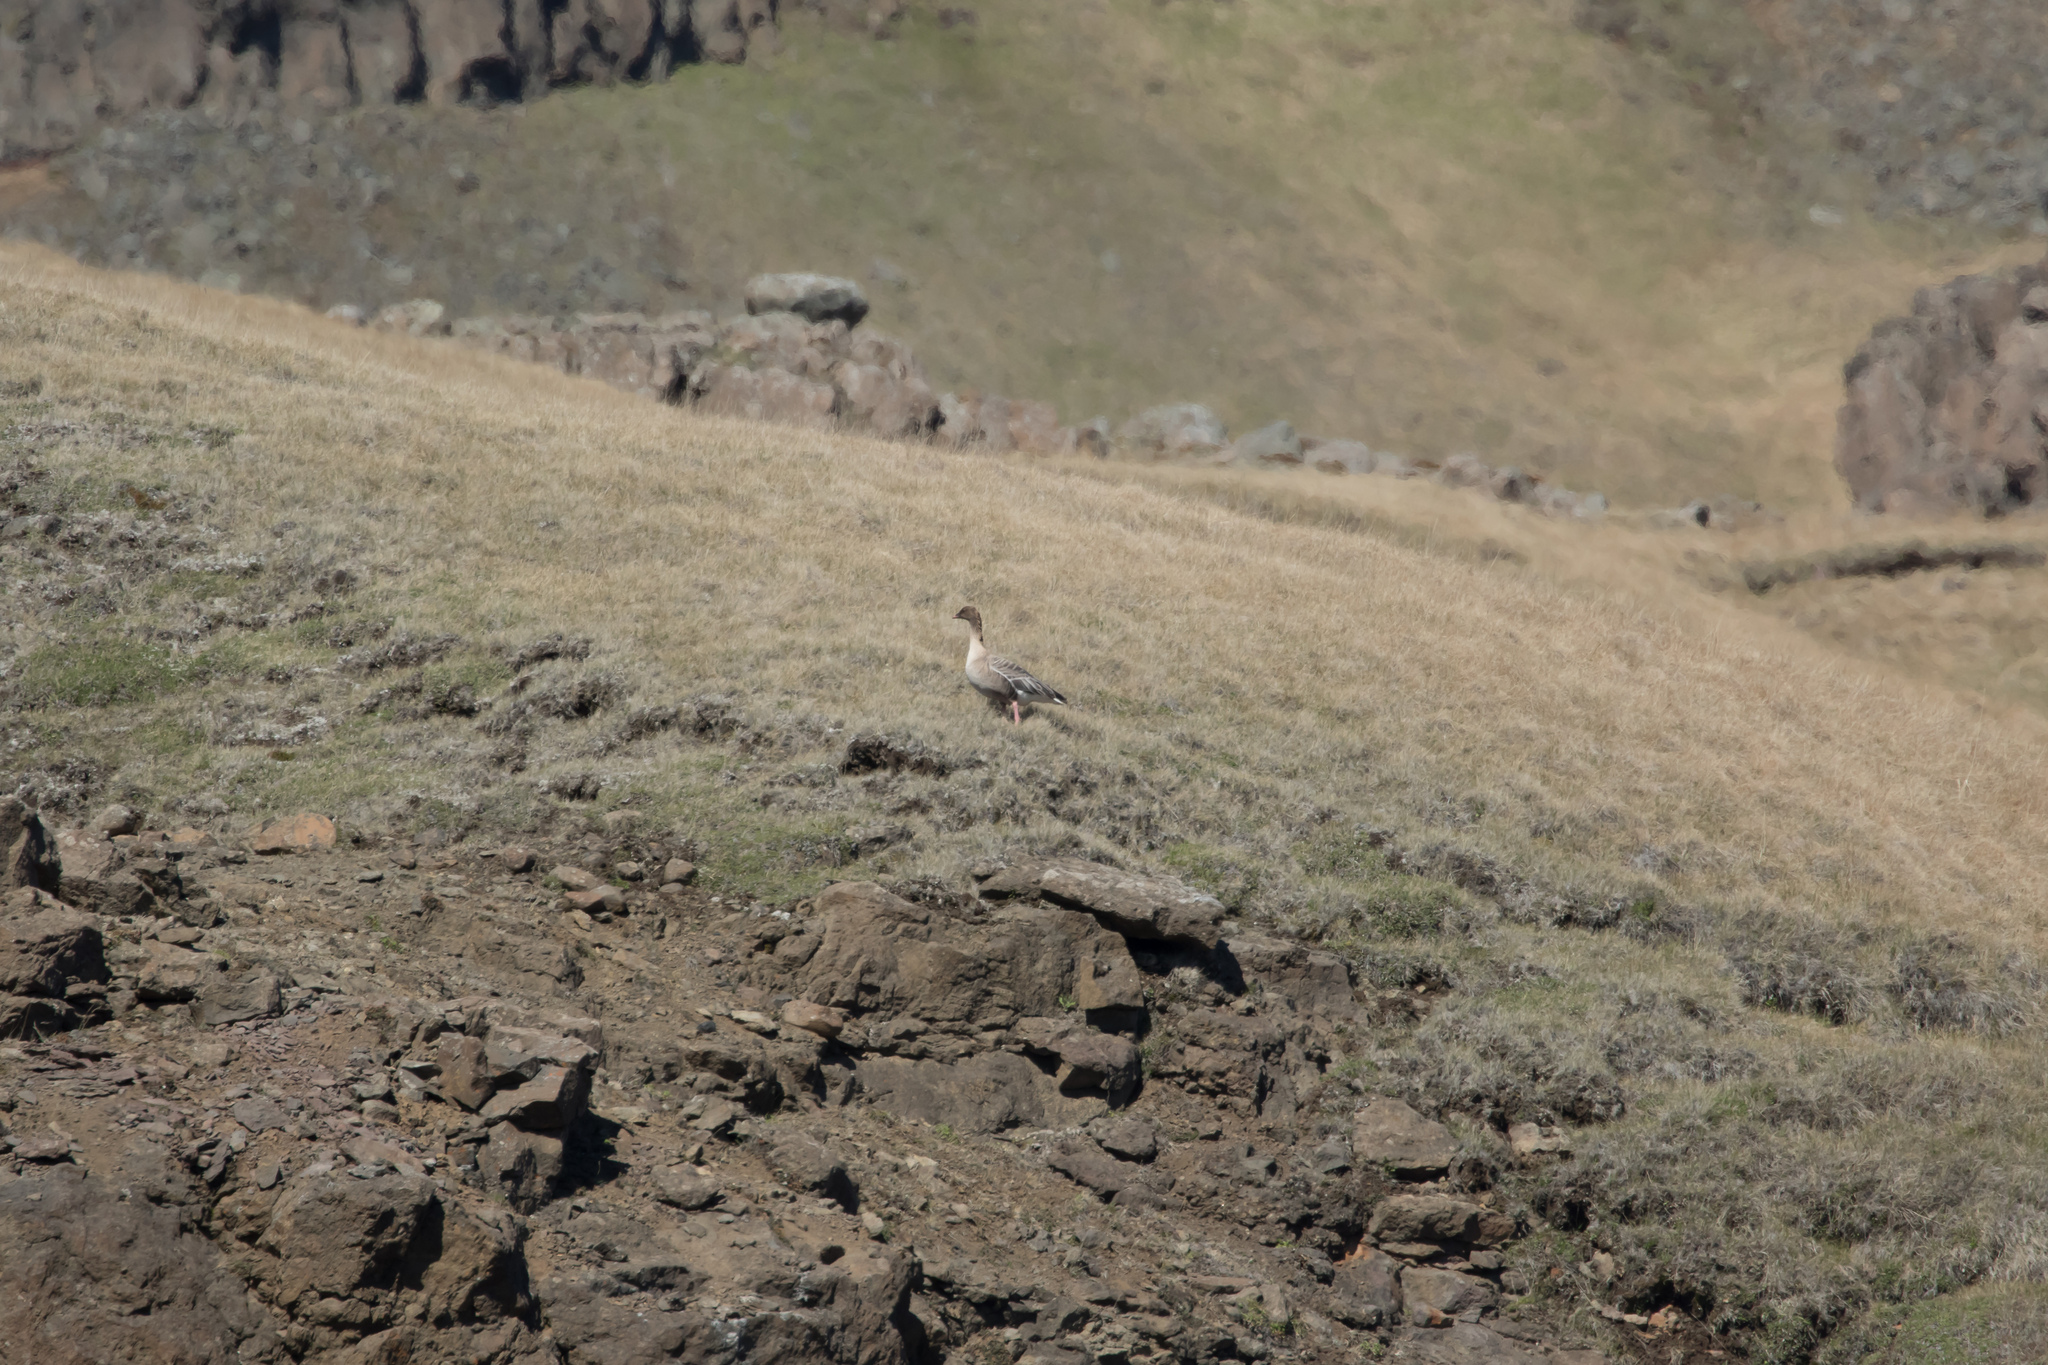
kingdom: Animalia
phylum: Chordata
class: Aves
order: Anseriformes
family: Anatidae
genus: Anser
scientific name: Anser brachyrhynchus
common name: Pink-footed goose
